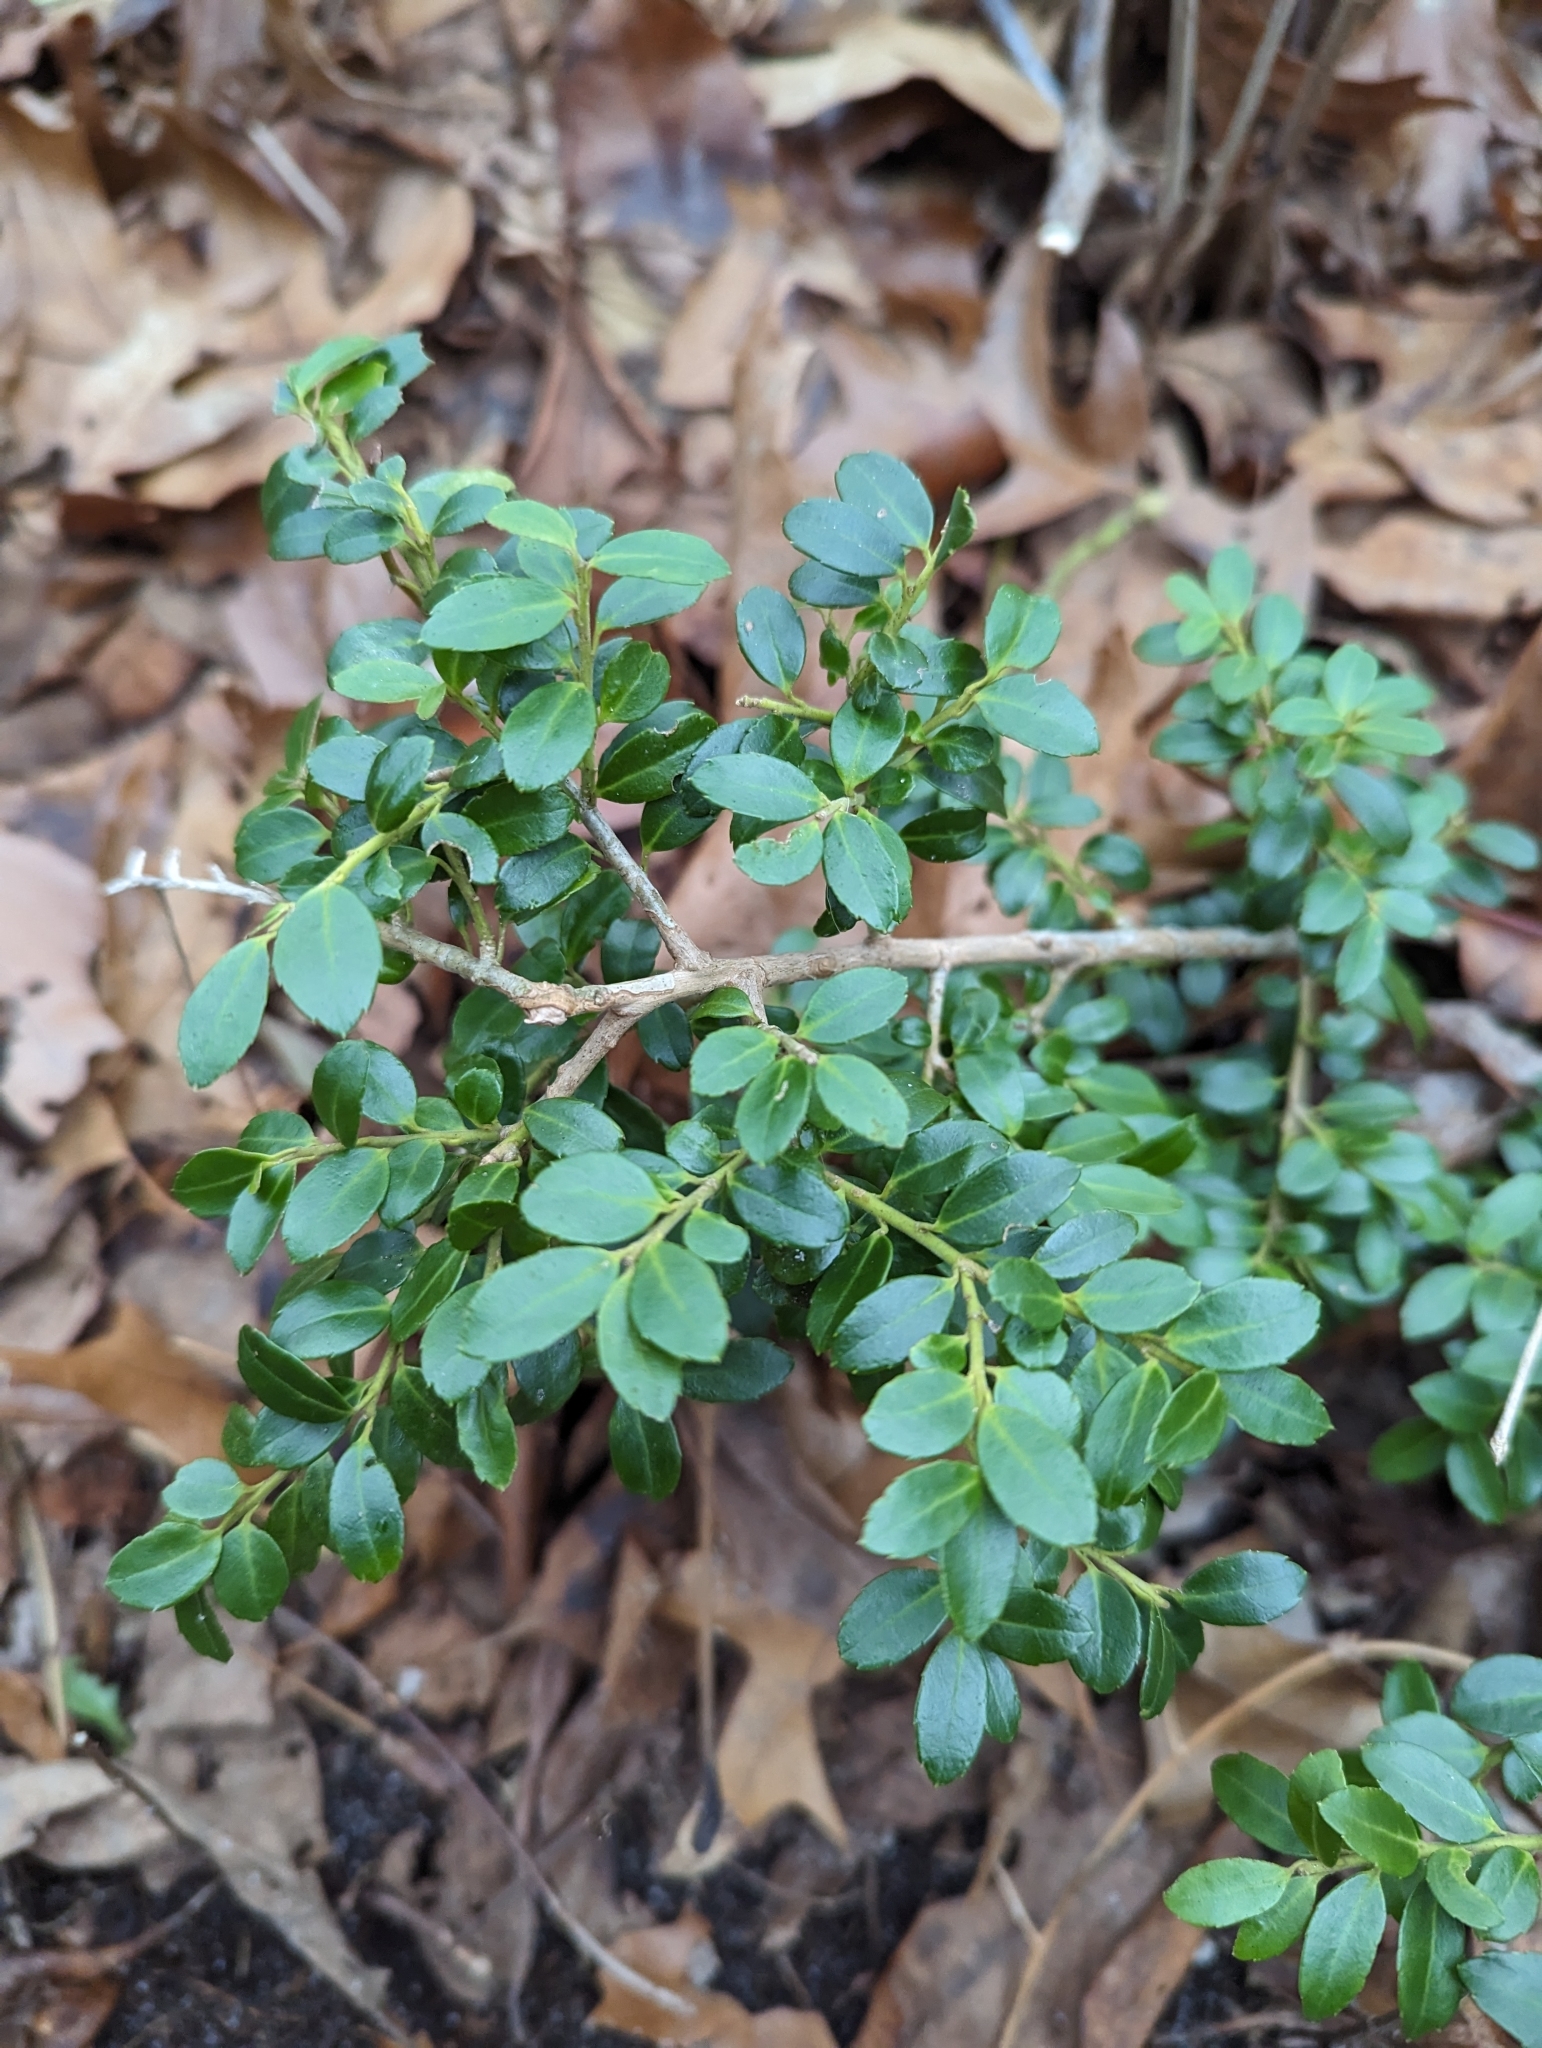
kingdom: Plantae
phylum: Tracheophyta
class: Magnoliopsida
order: Aquifoliales
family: Aquifoliaceae
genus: Ilex
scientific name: Ilex crenata
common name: Japanese holly
